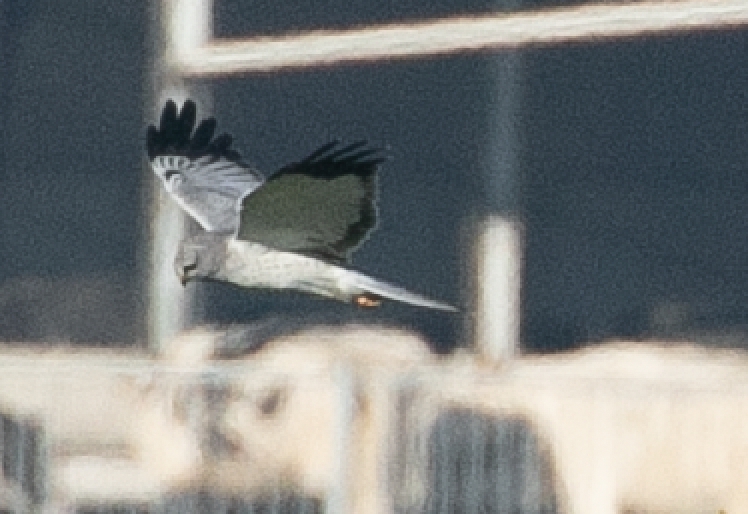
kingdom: Animalia
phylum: Chordata
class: Aves
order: Accipitriformes
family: Accipitridae
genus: Circus
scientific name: Circus cyaneus
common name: Hen harrier
